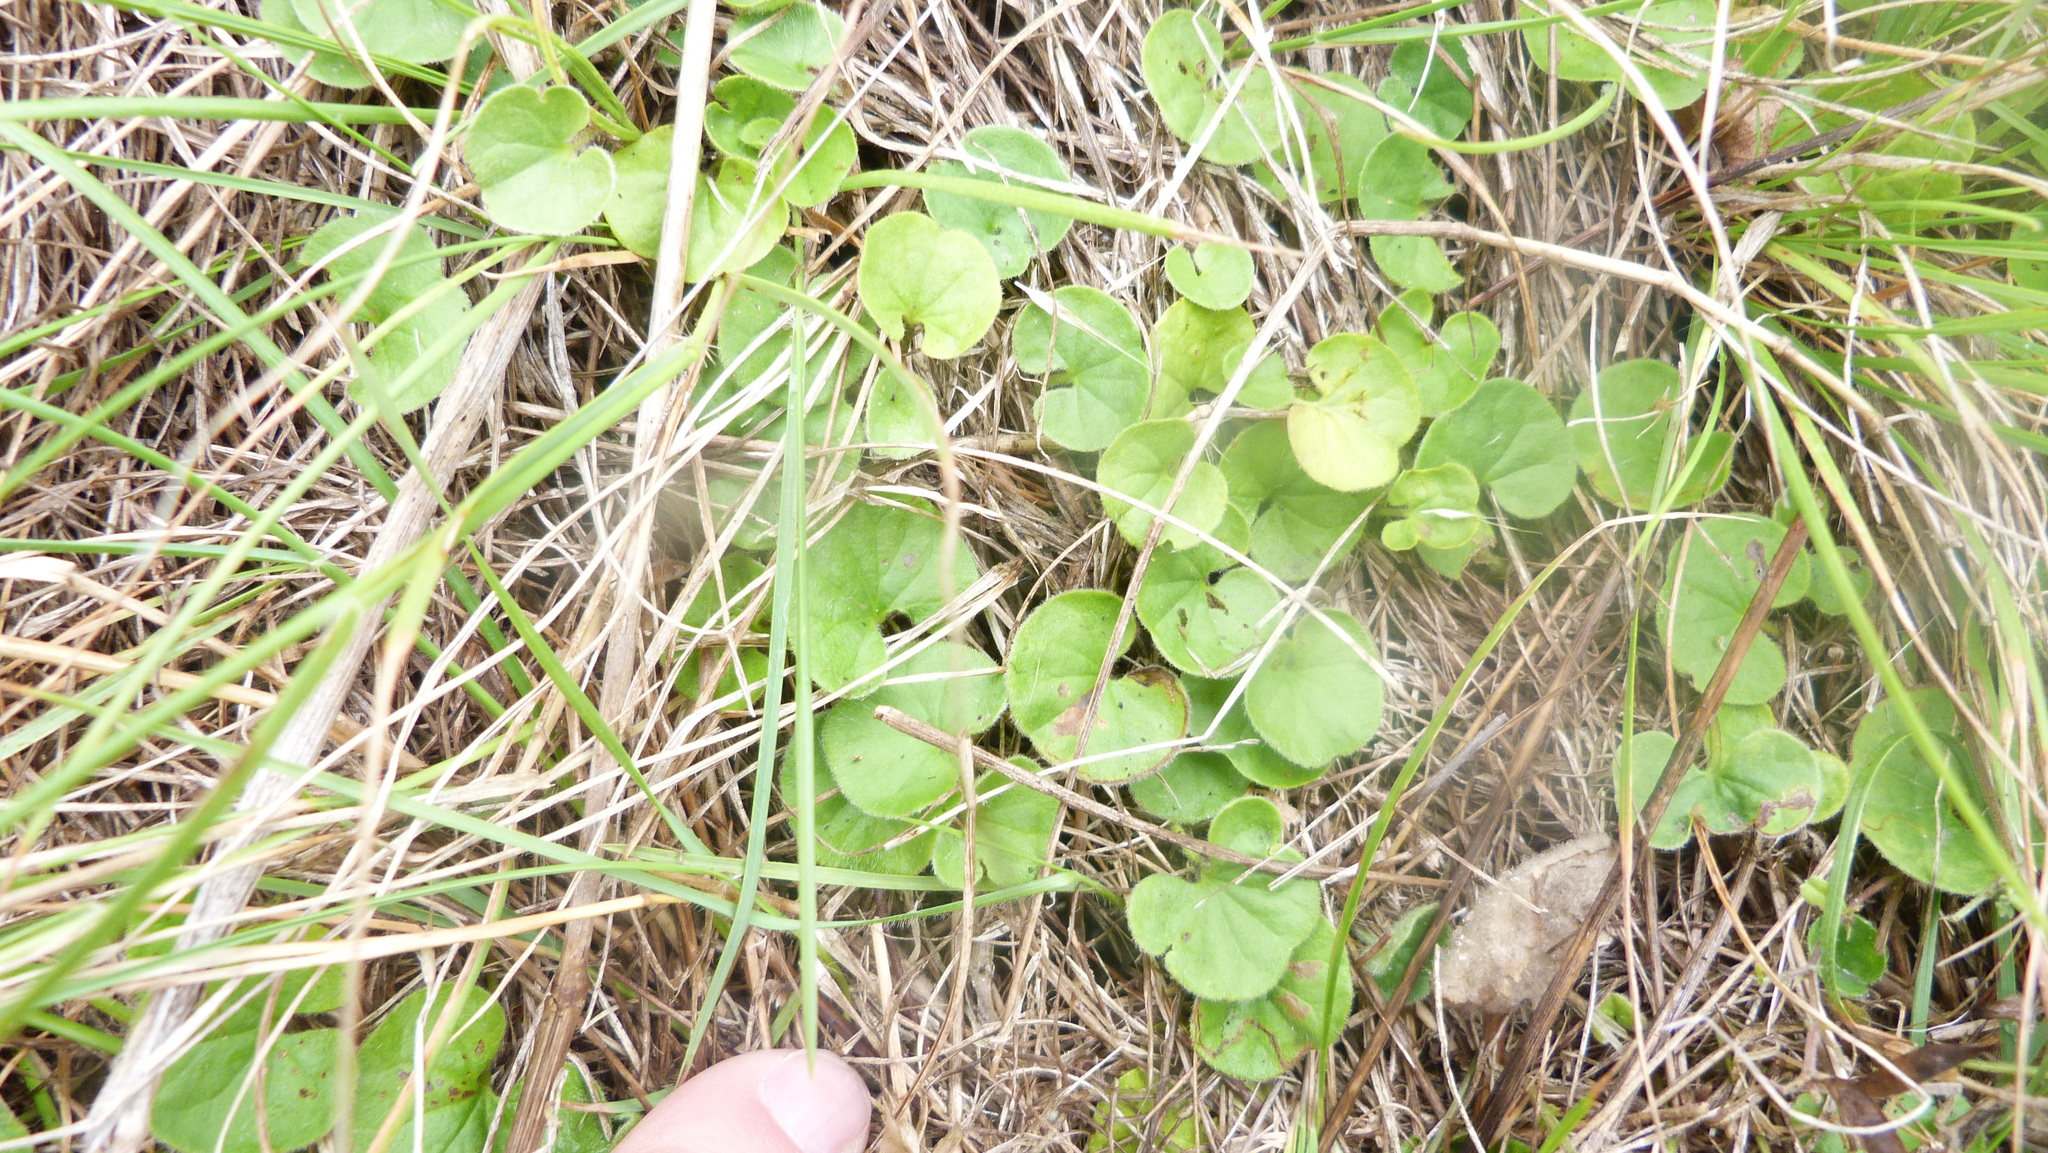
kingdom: Plantae
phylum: Tracheophyta
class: Magnoliopsida
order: Solanales
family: Convolvulaceae
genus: Dichondra
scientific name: Dichondra repens
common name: Kidneyweed
